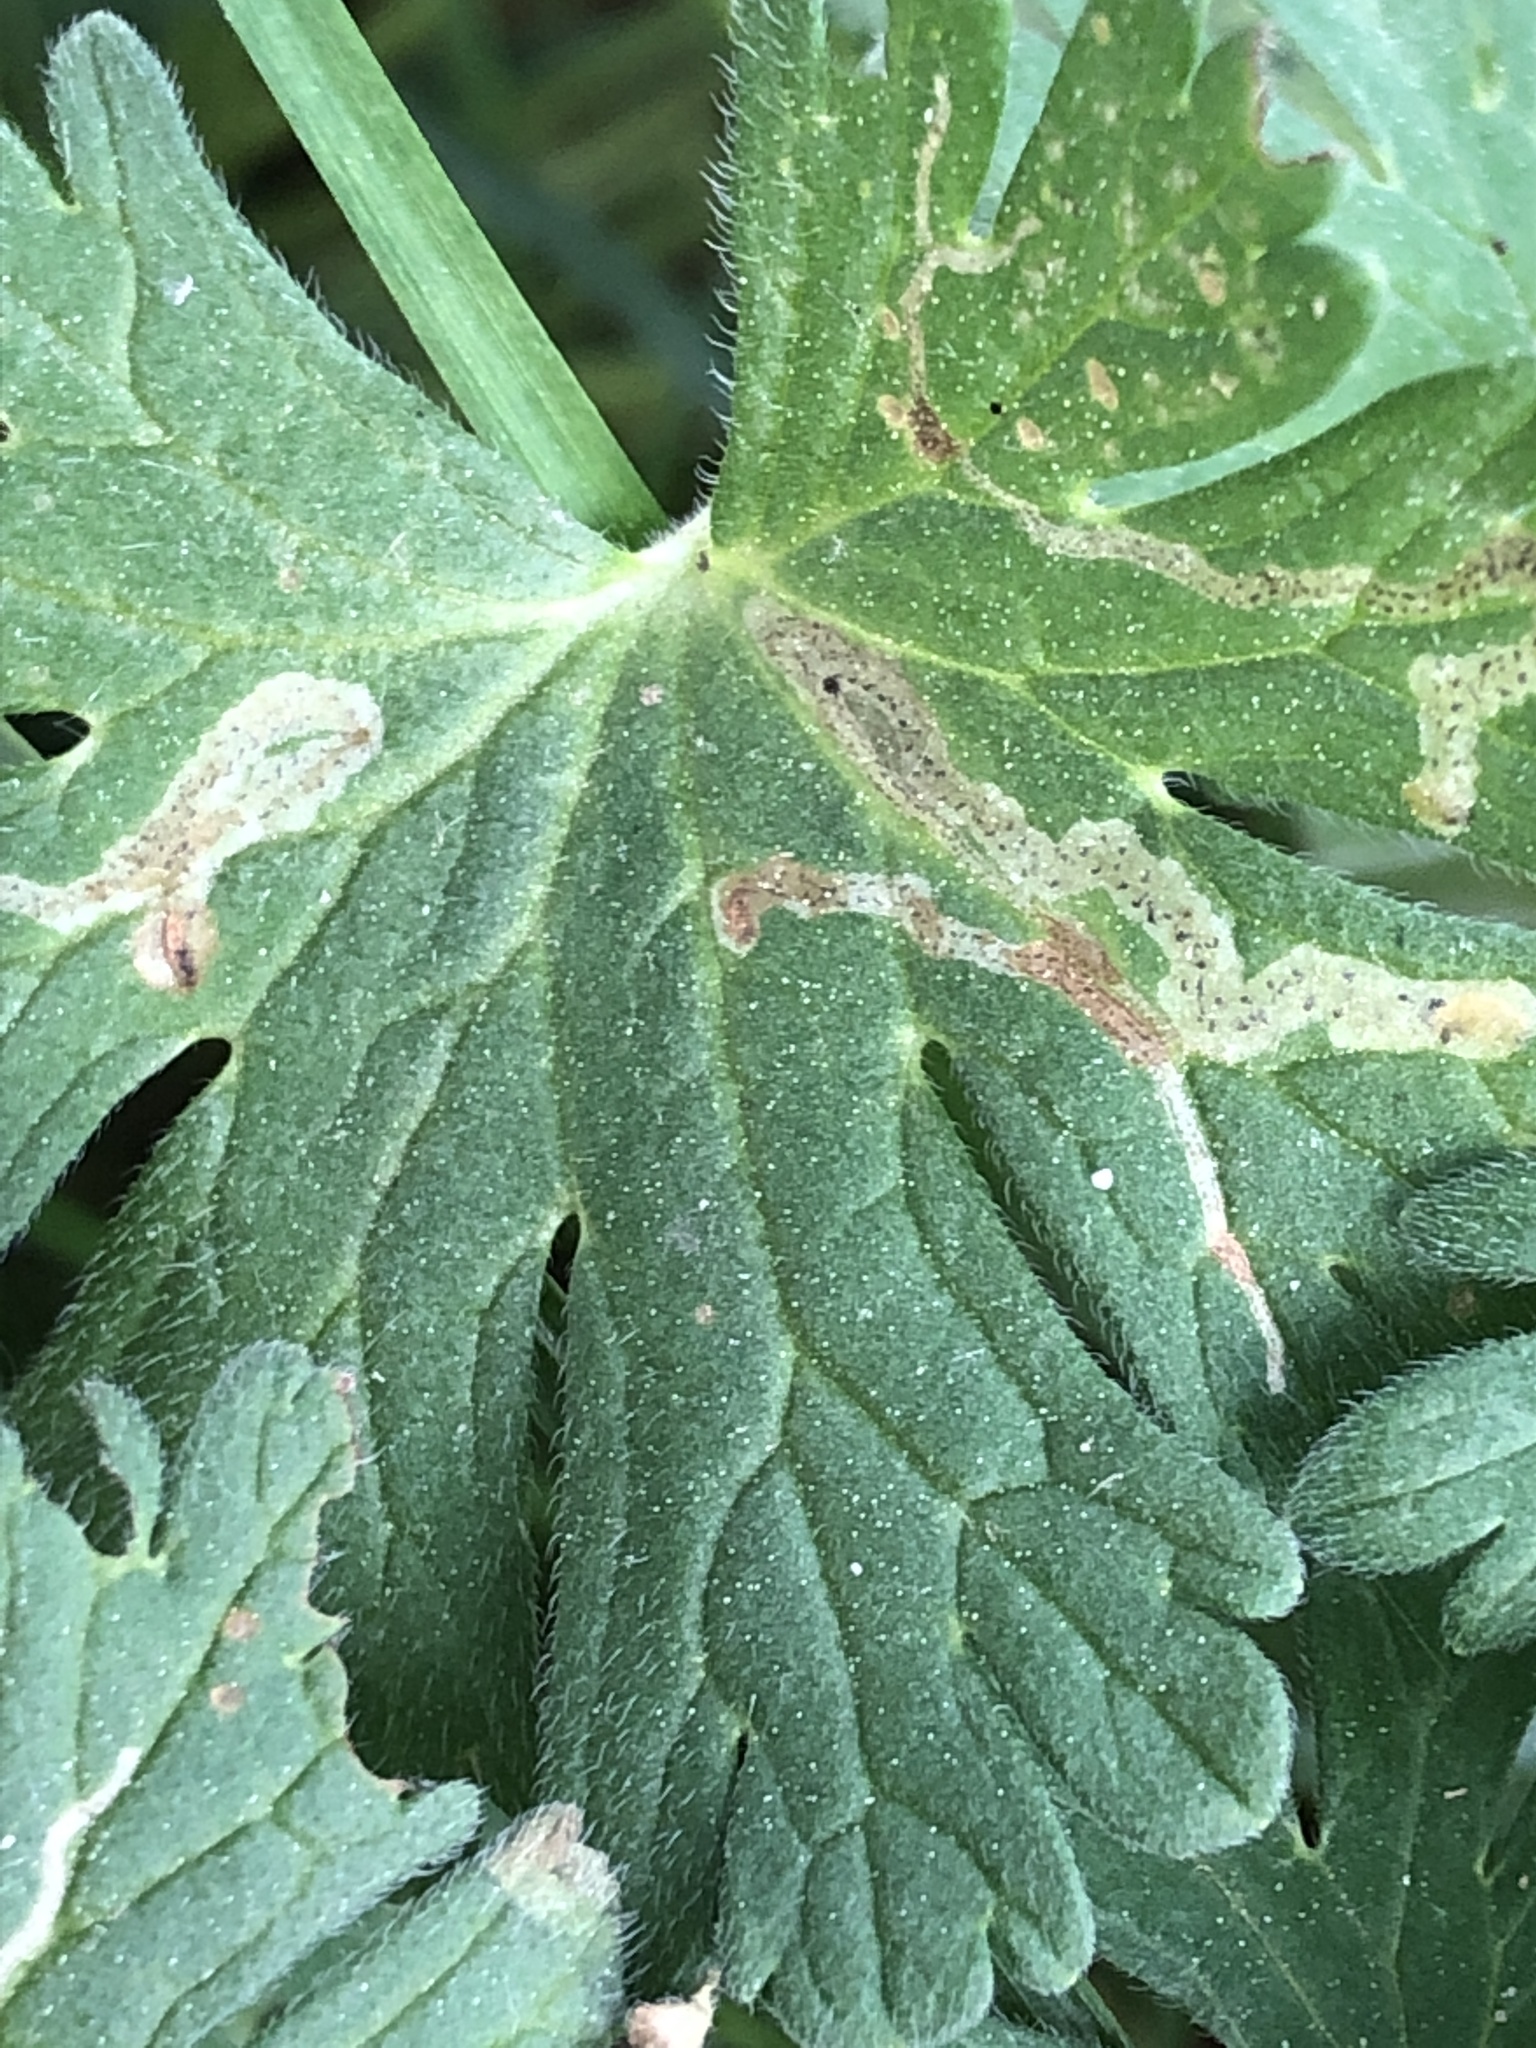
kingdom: Animalia
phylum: Arthropoda
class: Insecta
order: Diptera
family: Agromyzidae
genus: Agromyza
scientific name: Agromyza nigrescens
